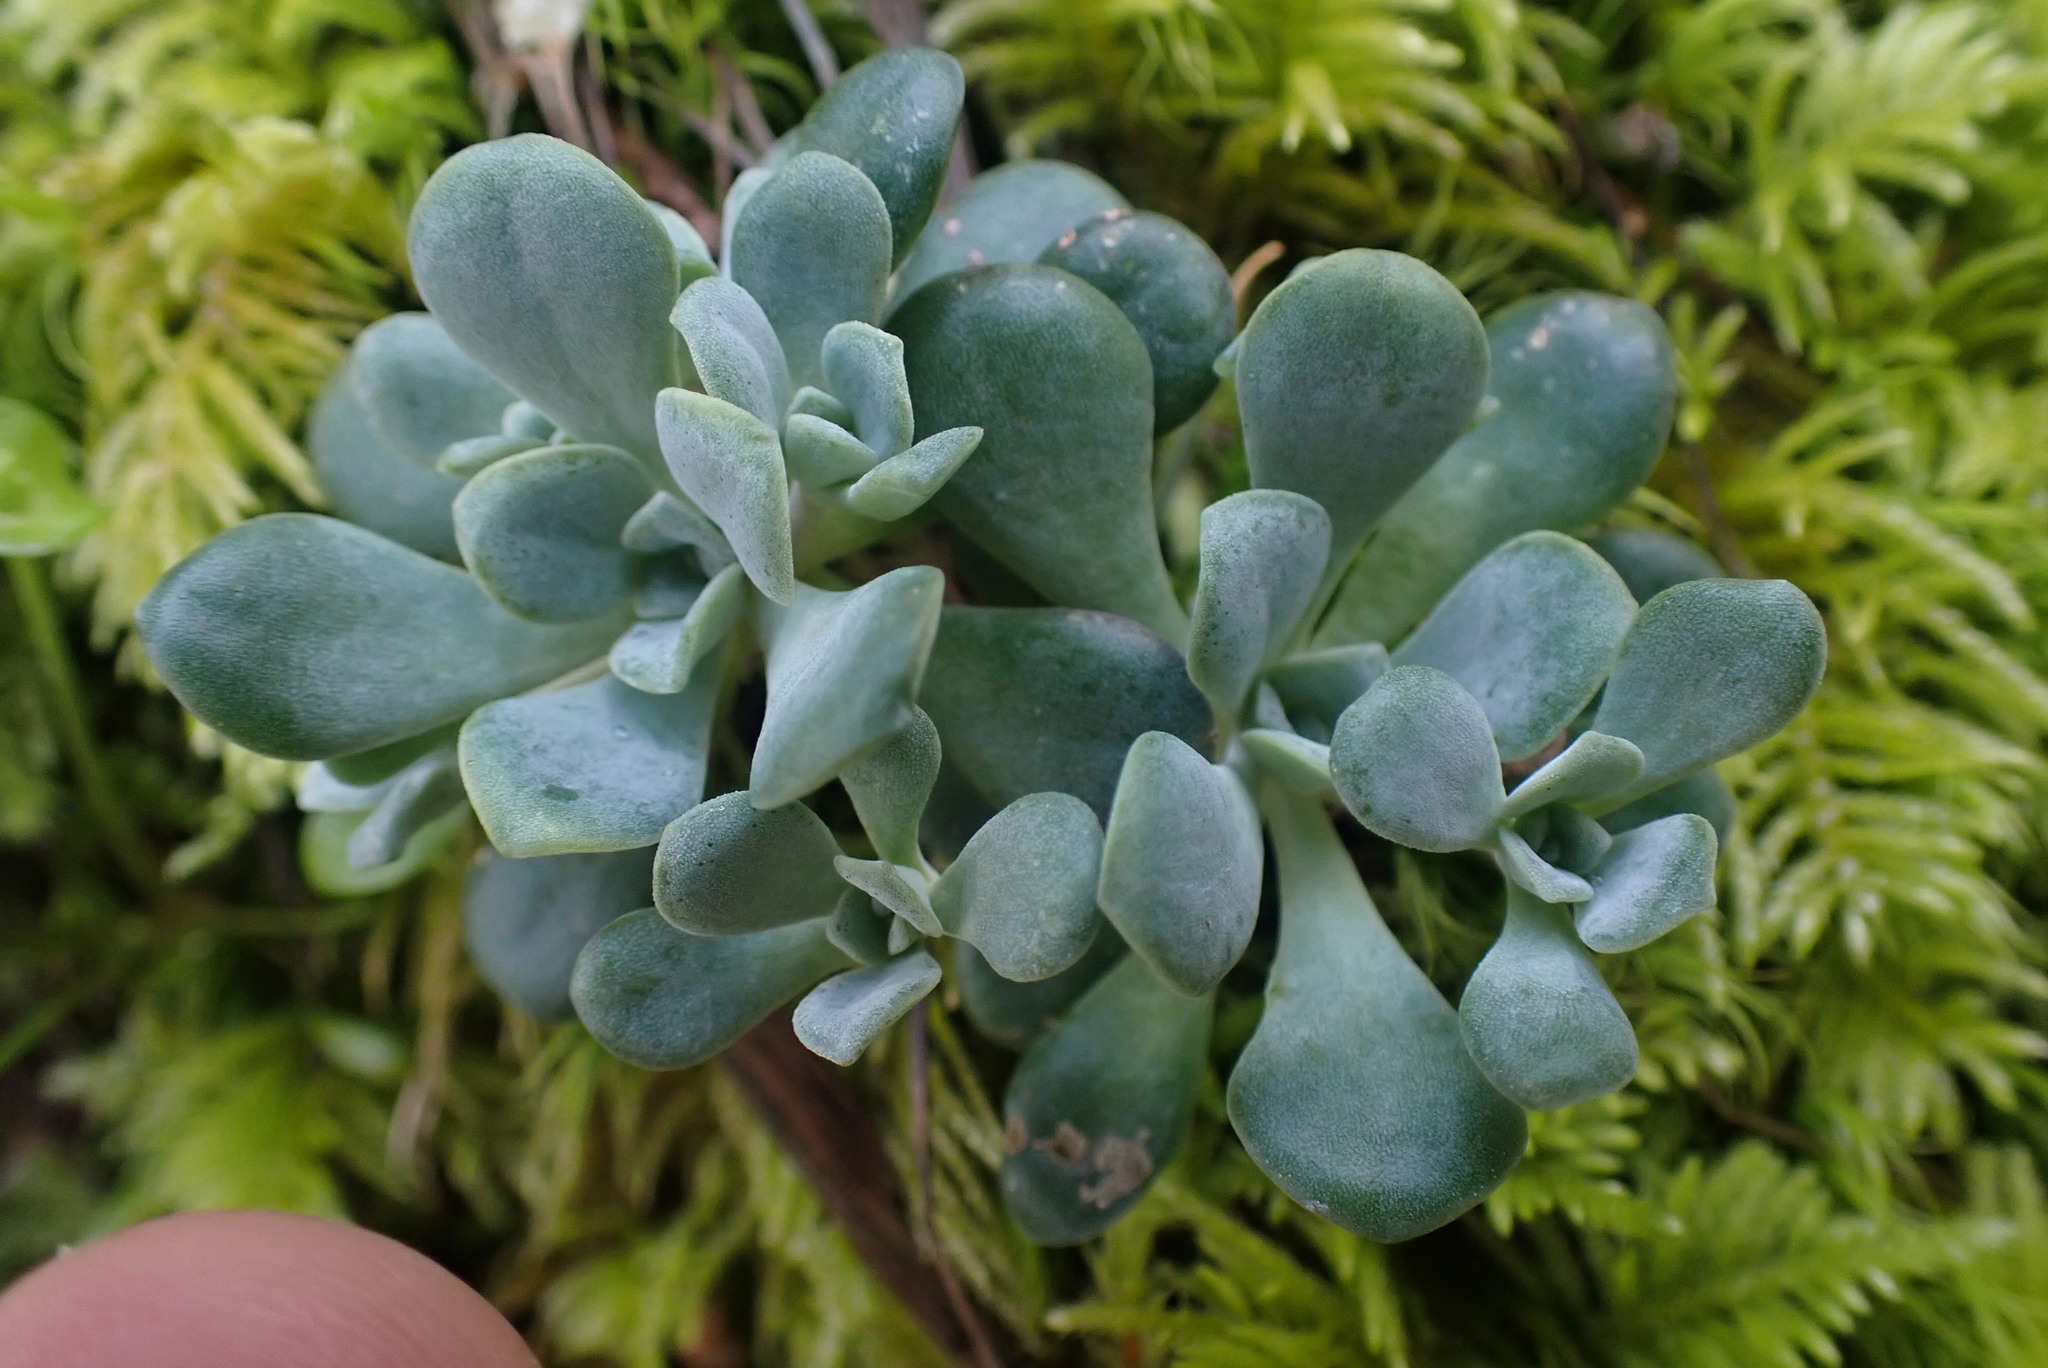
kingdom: Plantae
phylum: Tracheophyta
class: Magnoliopsida
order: Saxifragales
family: Crassulaceae
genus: Sedum
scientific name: Sedum spathulifolium
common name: Colorado stonecrop
